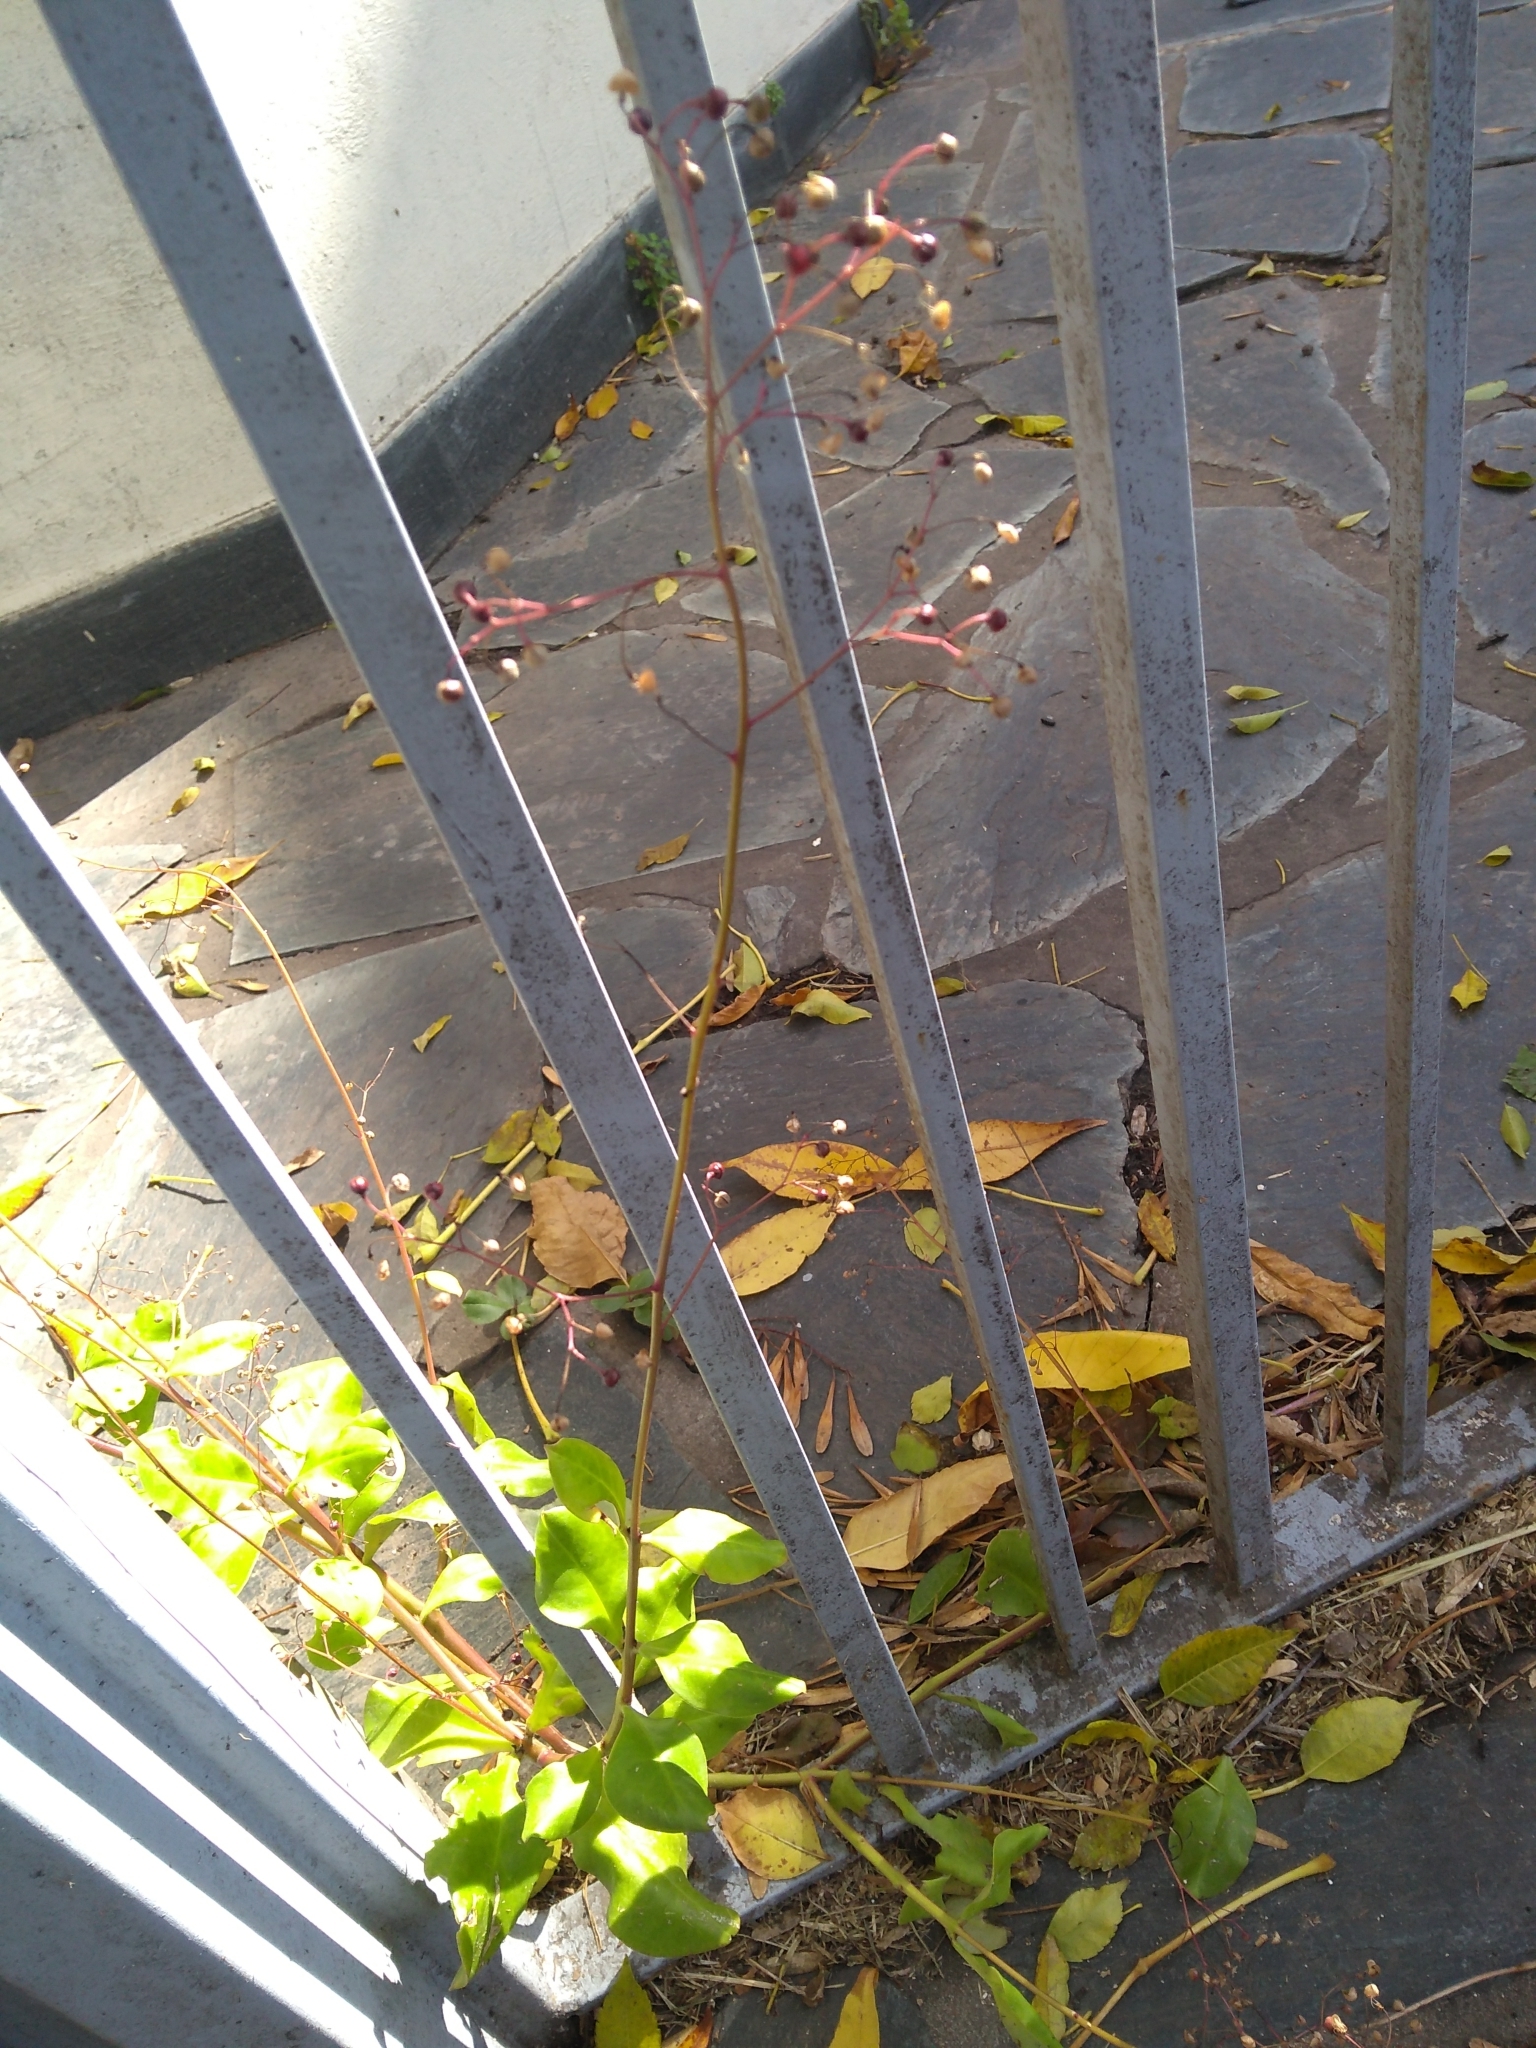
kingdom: Plantae
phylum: Tracheophyta
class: Magnoliopsida
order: Caryophyllales
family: Talinaceae
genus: Talinum
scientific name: Talinum paniculatum
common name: Jewels of opar
